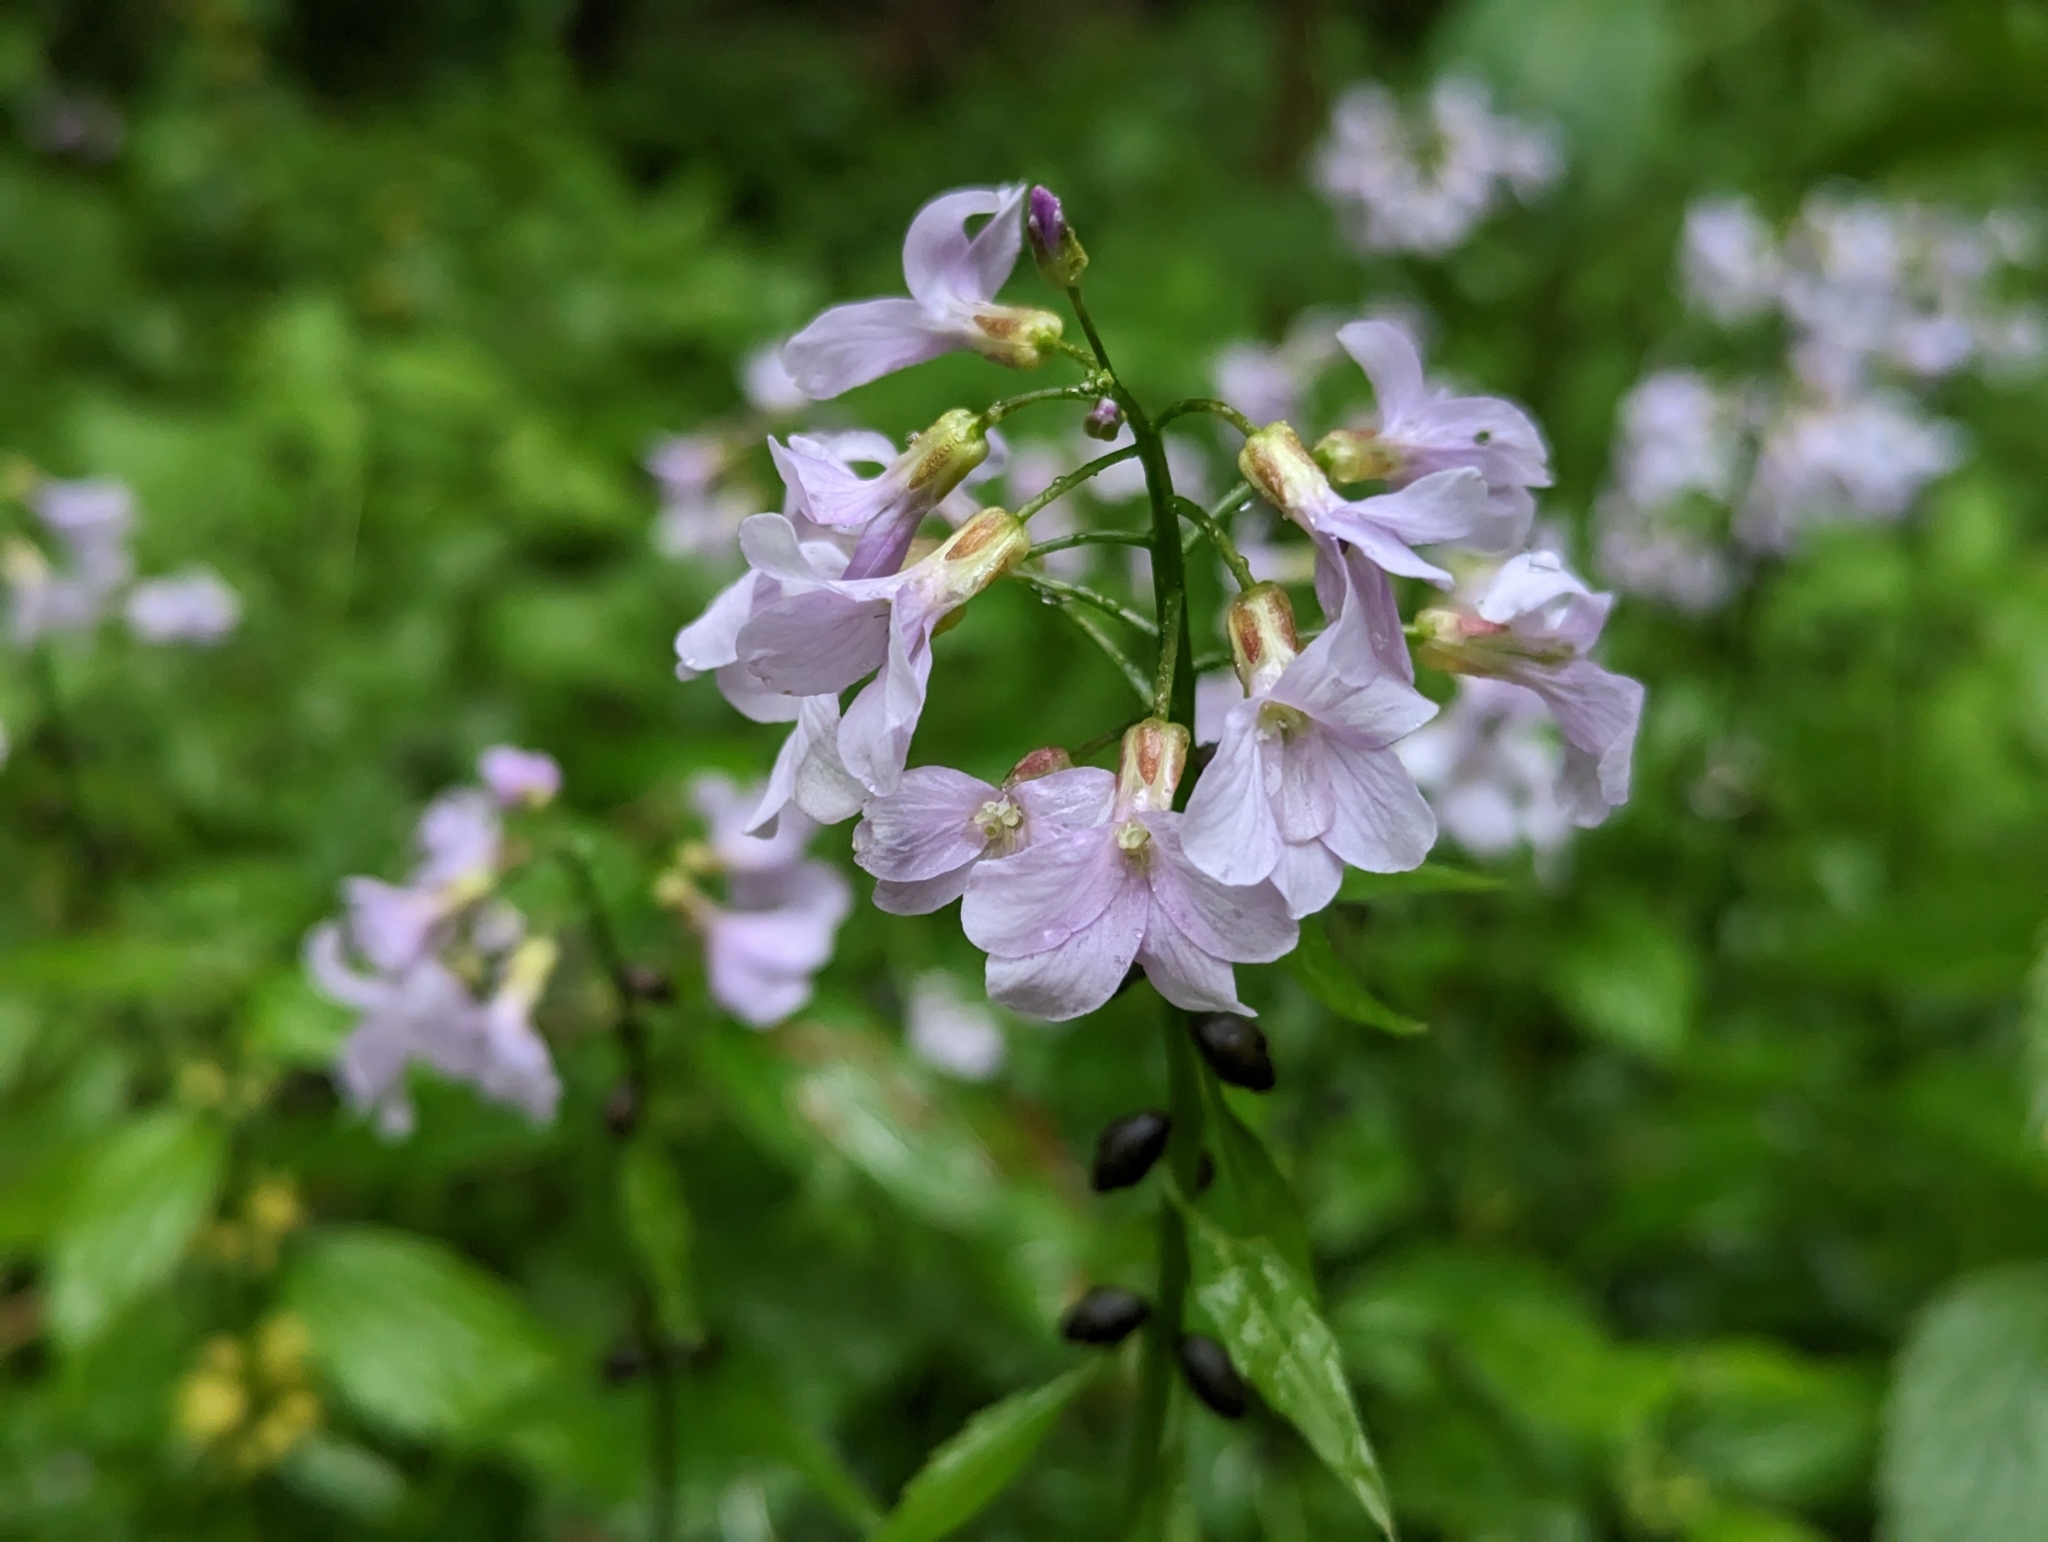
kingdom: Plantae
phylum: Tracheophyta
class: Magnoliopsida
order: Brassicales
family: Brassicaceae
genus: Cardamine
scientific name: Cardamine bulbifera
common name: Coralroot bittercress
